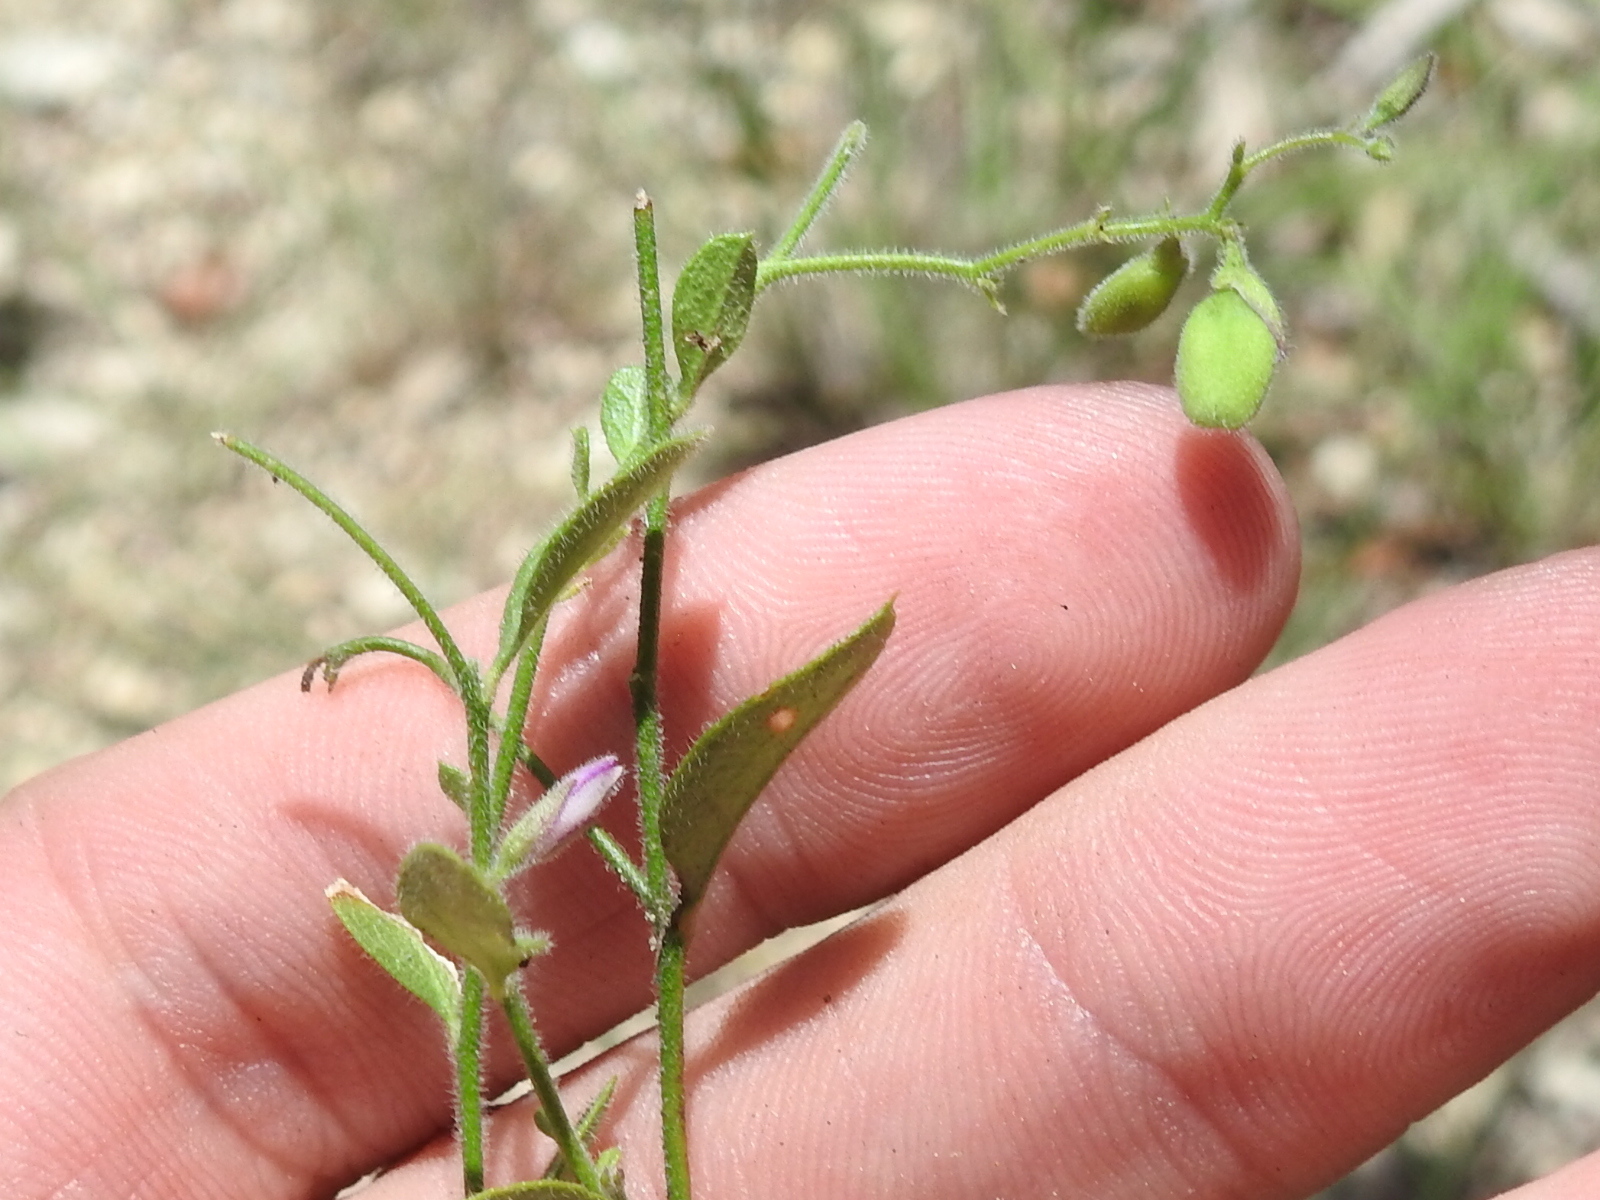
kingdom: Plantae
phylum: Tracheophyta
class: Magnoliopsida
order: Fabales
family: Polygalaceae
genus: Rhinotropis
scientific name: Rhinotropis lindheimeri
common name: Shrubby milkwort
